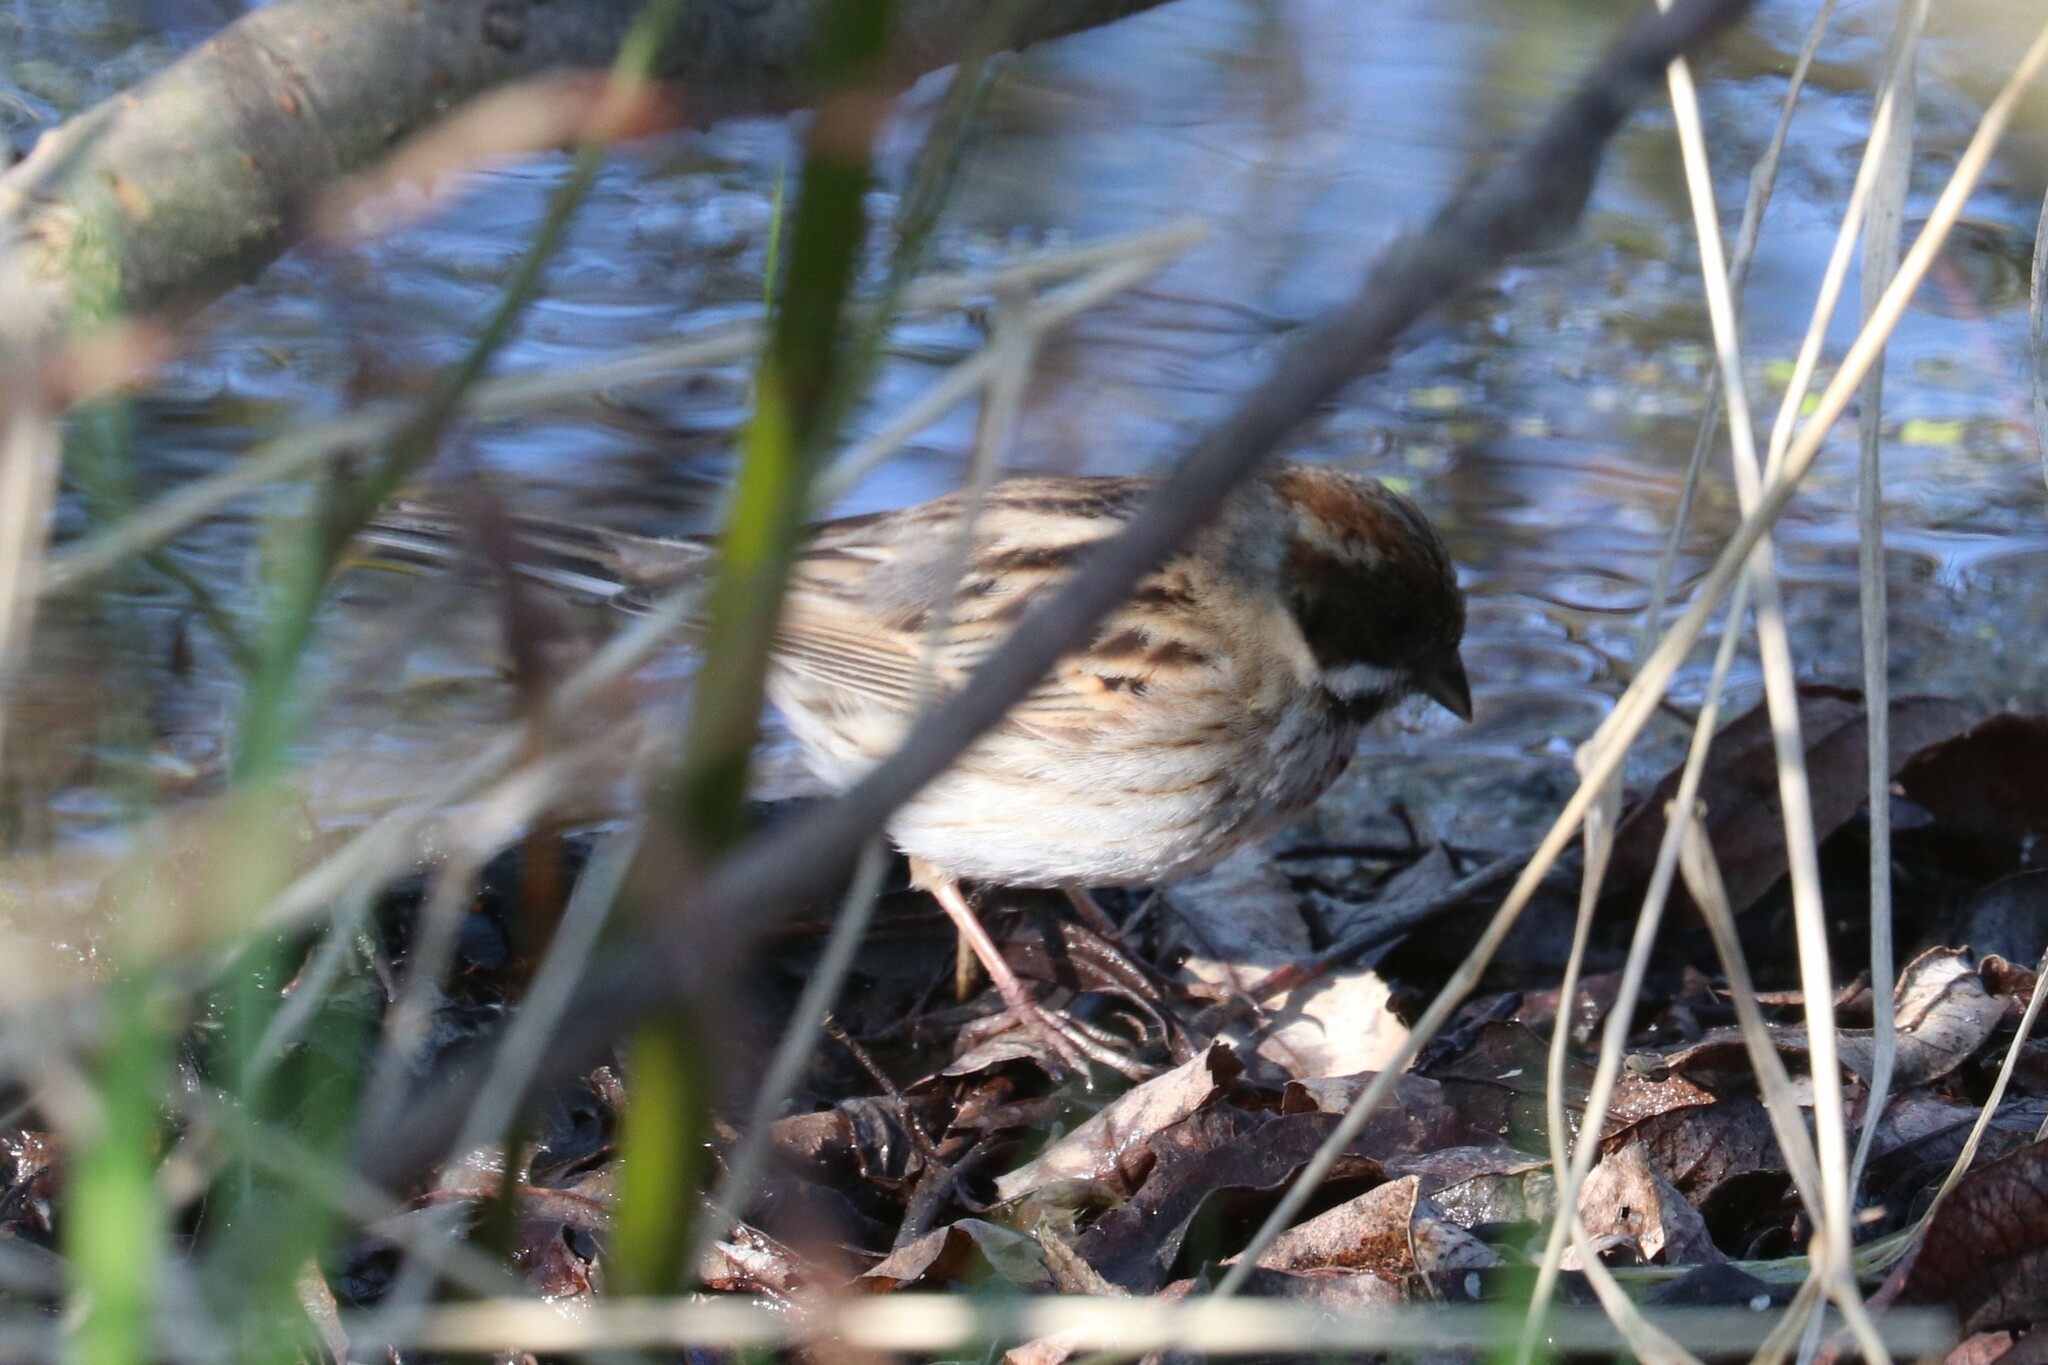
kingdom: Animalia
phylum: Chordata
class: Aves
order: Passeriformes
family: Emberizidae
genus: Emberiza
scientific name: Emberiza schoeniclus
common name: Reed bunting
